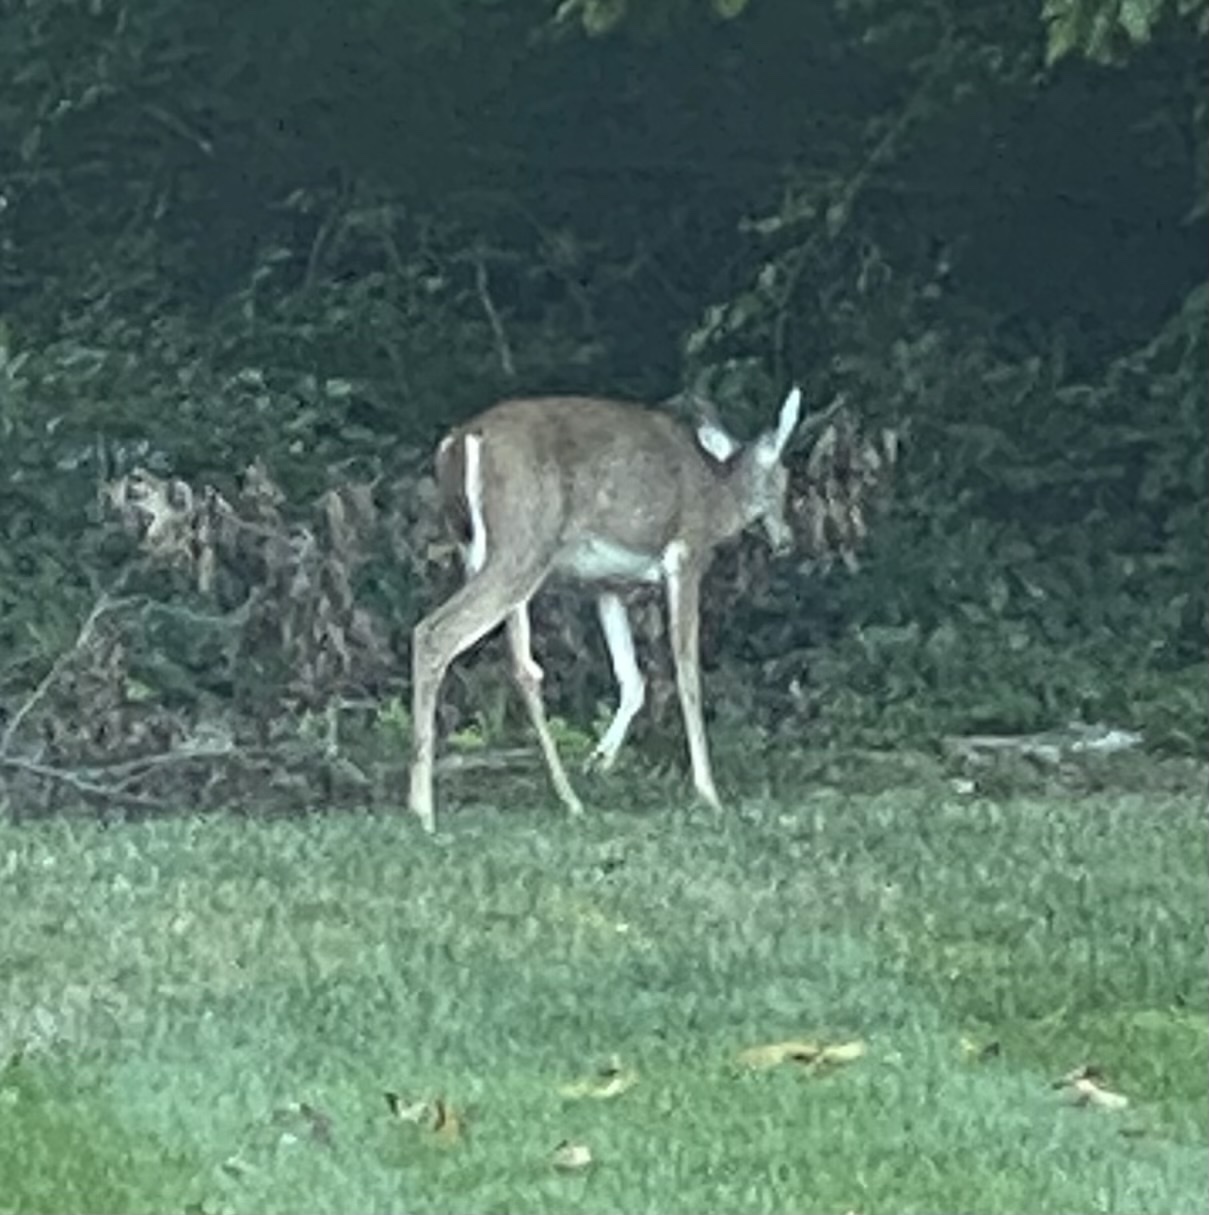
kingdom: Animalia
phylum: Chordata
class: Mammalia
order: Artiodactyla
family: Cervidae
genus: Odocoileus
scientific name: Odocoileus virginianus
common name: White-tailed deer
